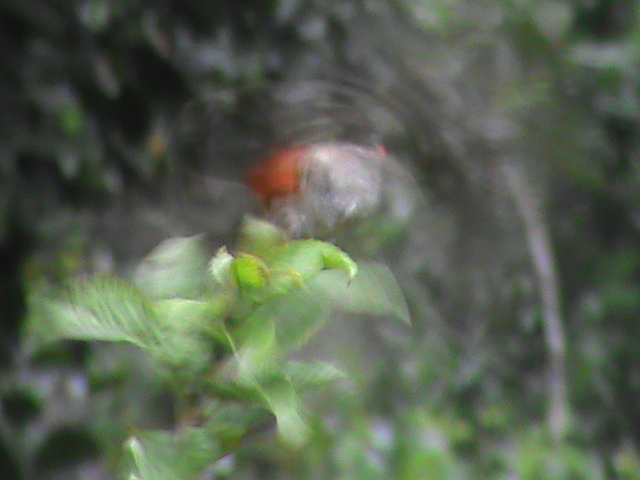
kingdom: Animalia
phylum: Chordata
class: Aves
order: Passeriformes
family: Pycnonotidae
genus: Pycnonotus
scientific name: Pycnonotus jocosus
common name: Red-whiskered bulbul
